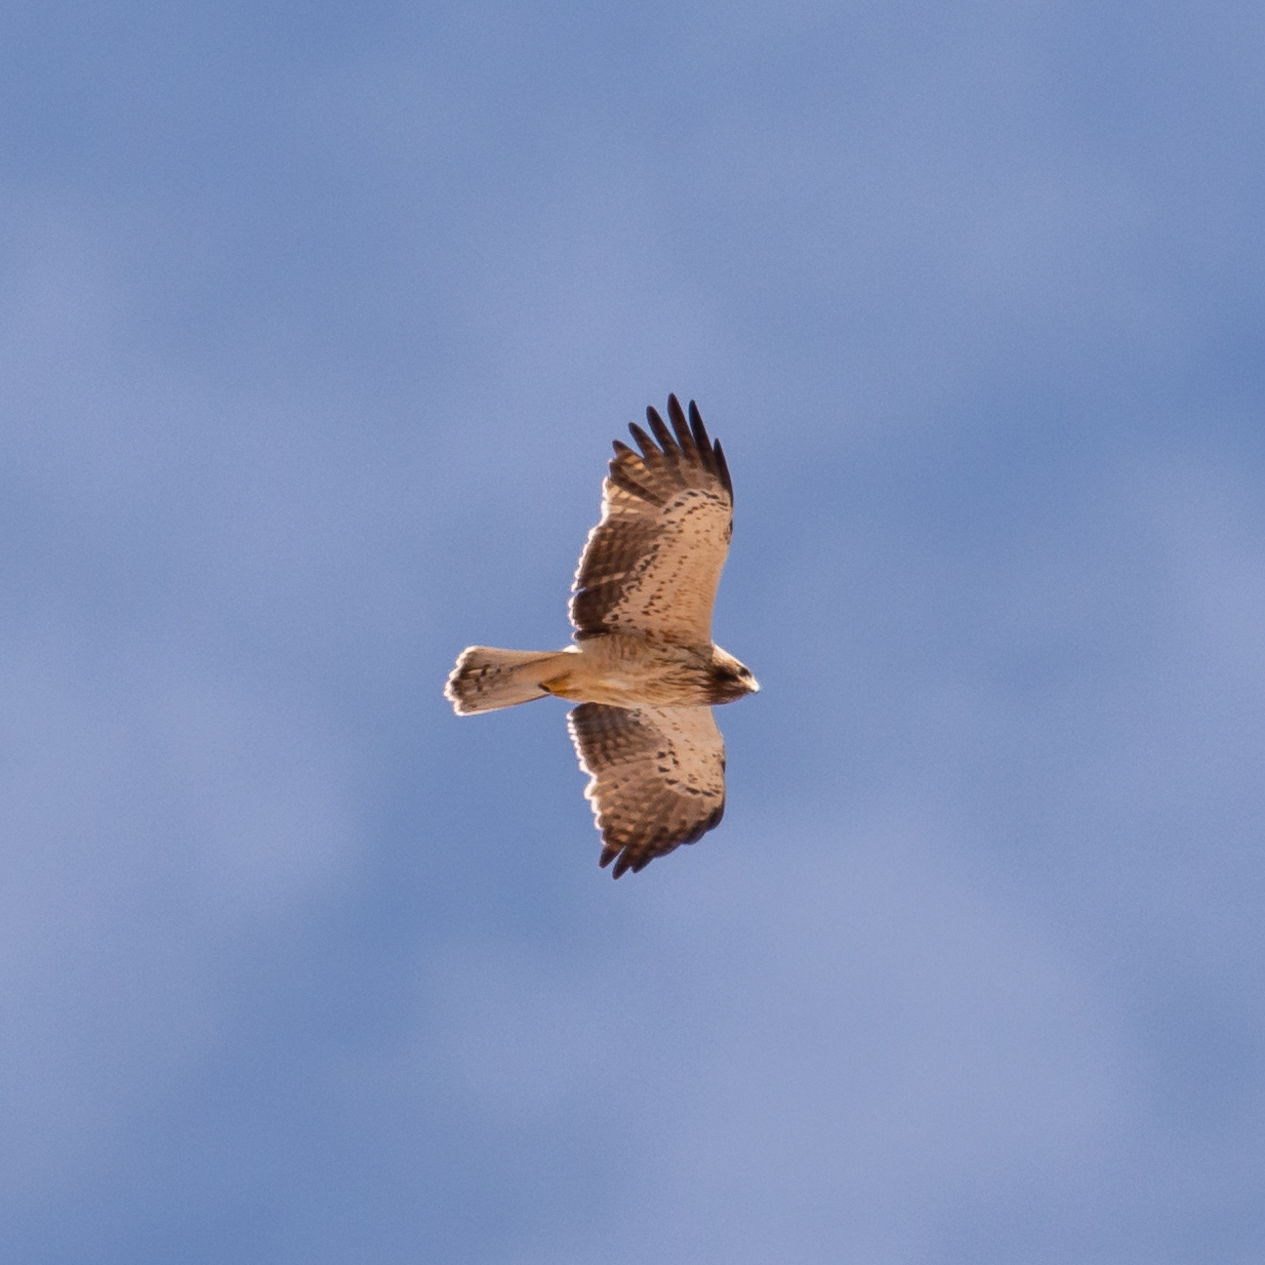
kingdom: Animalia
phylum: Chordata
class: Aves
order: Accipitriformes
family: Accipitridae
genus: Hieraaetus
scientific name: Hieraaetus pennatus
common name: Booted eagle
